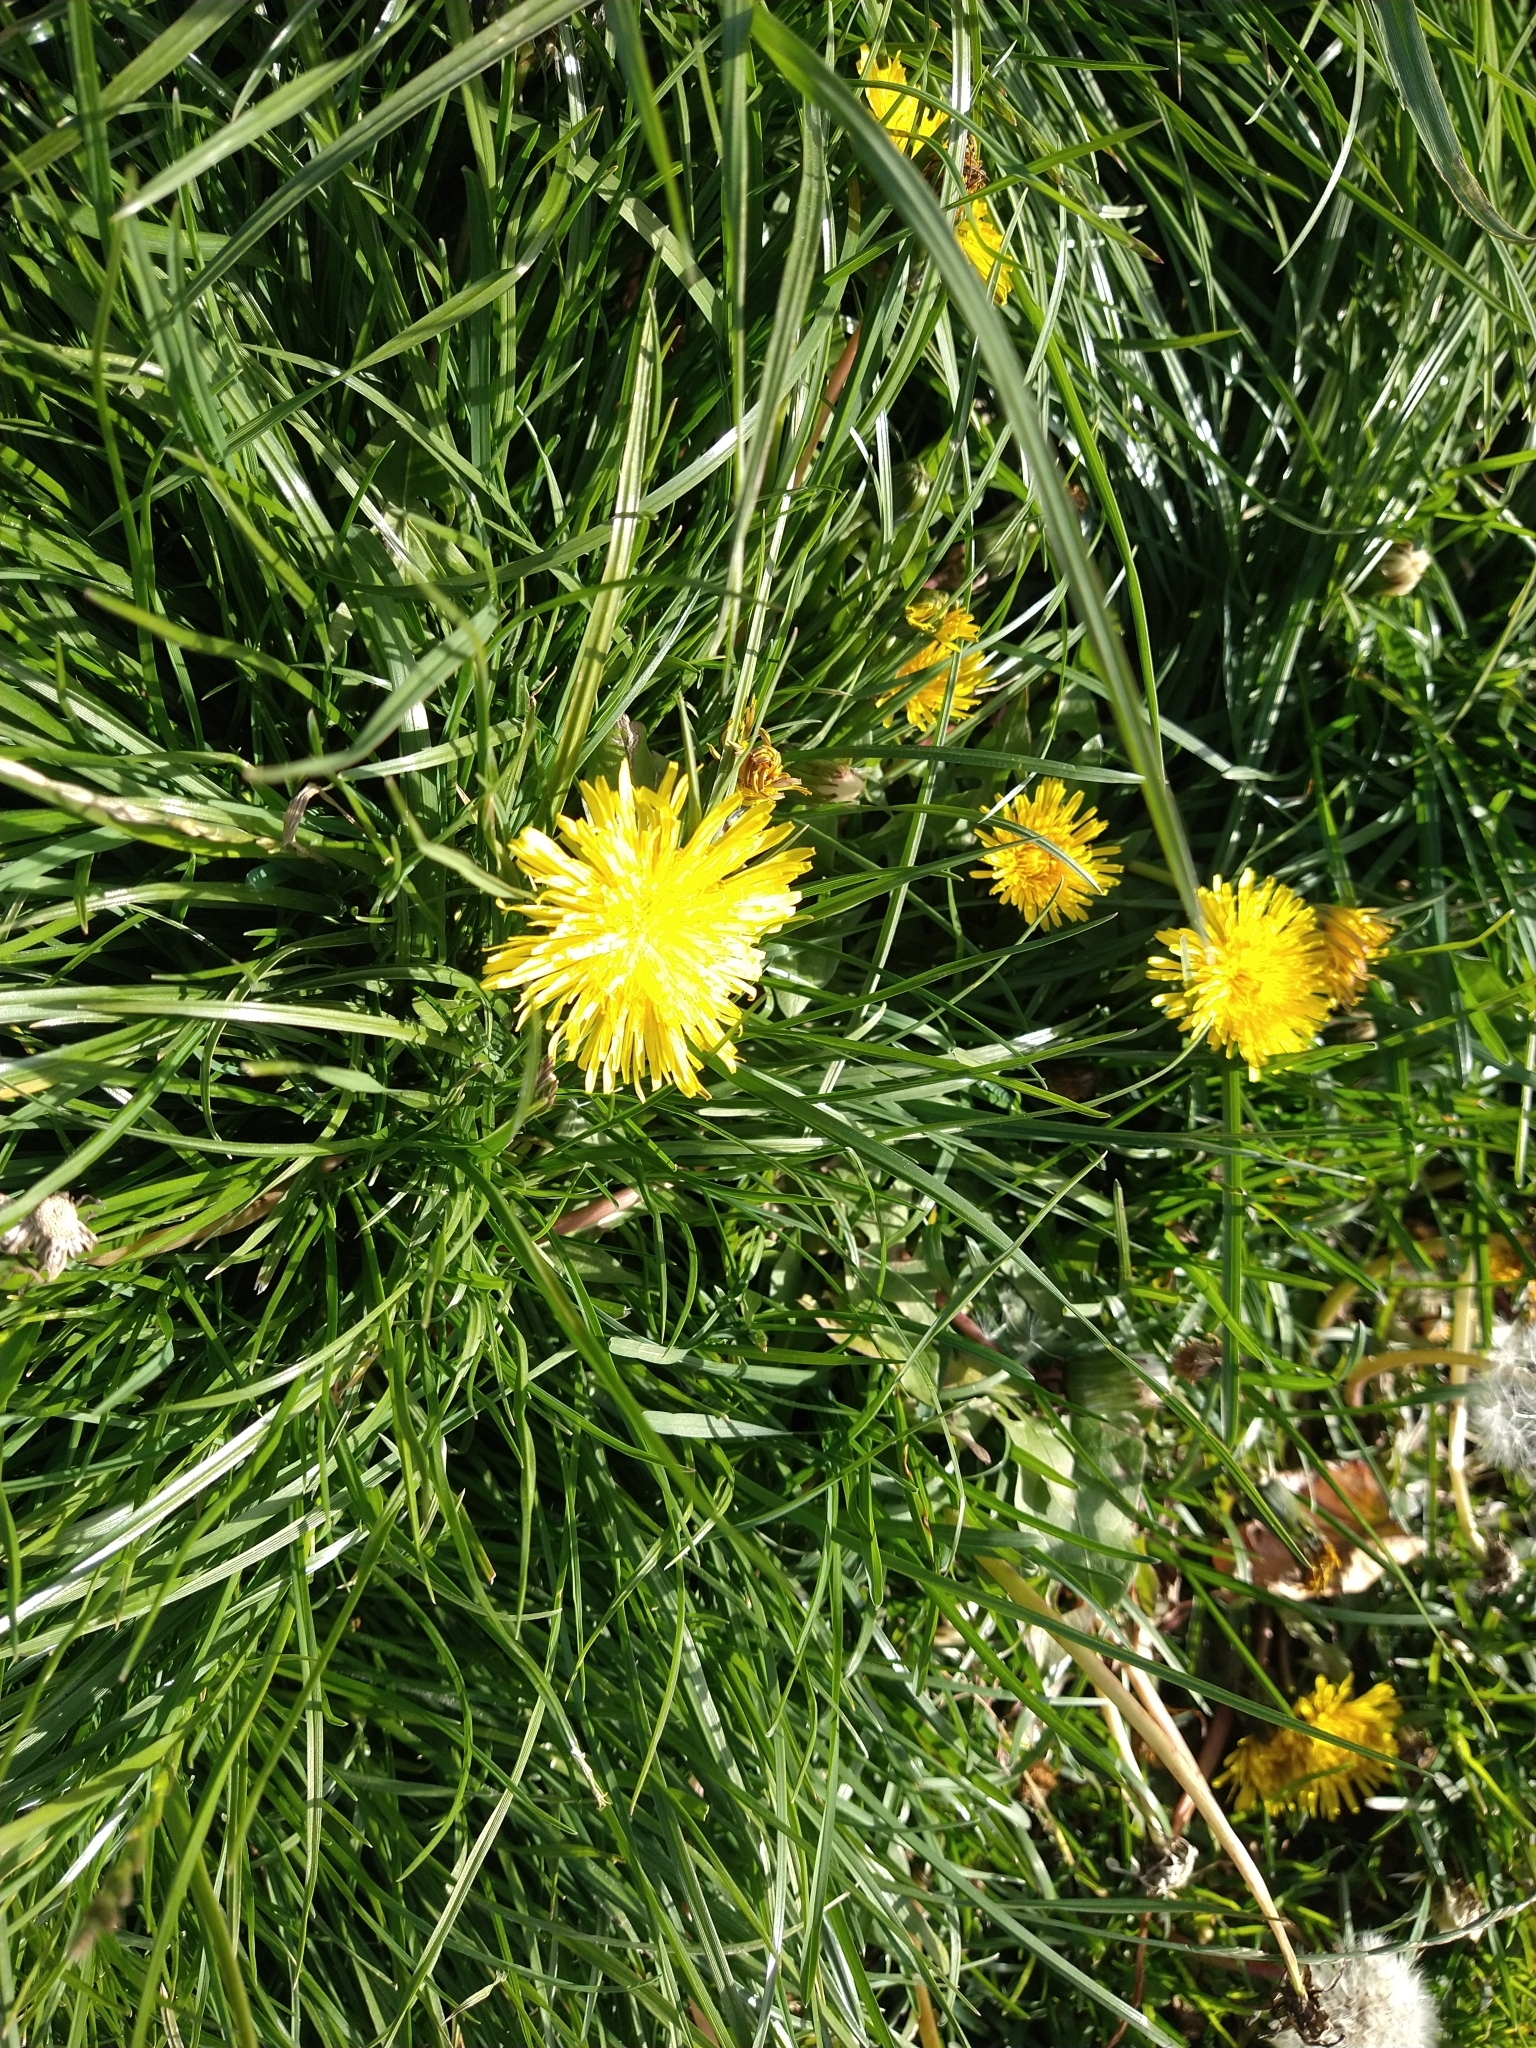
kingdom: Plantae
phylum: Tracheophyta
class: Magnoliopsida
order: Asterales
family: Asteraceae
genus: Taraxacum
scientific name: Taraxacum officinale
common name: Common dandelion
